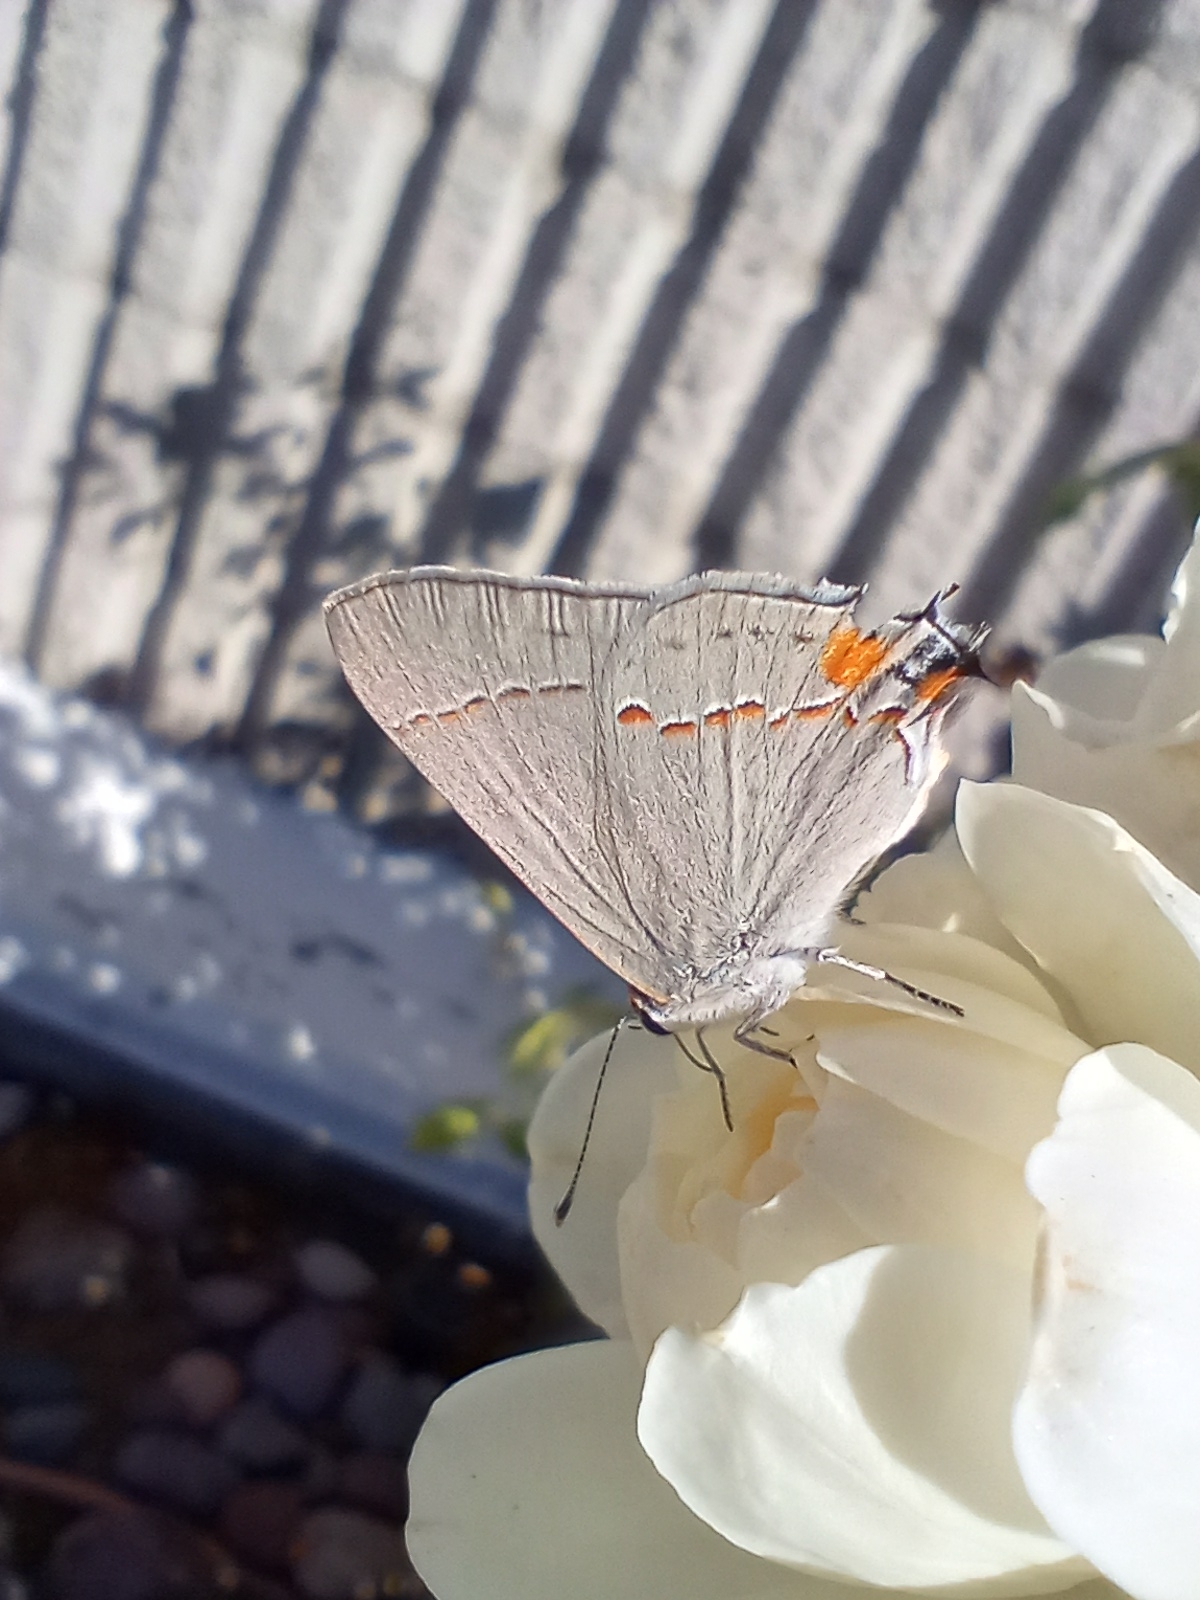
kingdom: Animalia
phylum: Arthropoda
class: Insecta
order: Lepidoptera
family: Lycaenidae
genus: Strymon
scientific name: Strymon melinus
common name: Gray hairstreak
